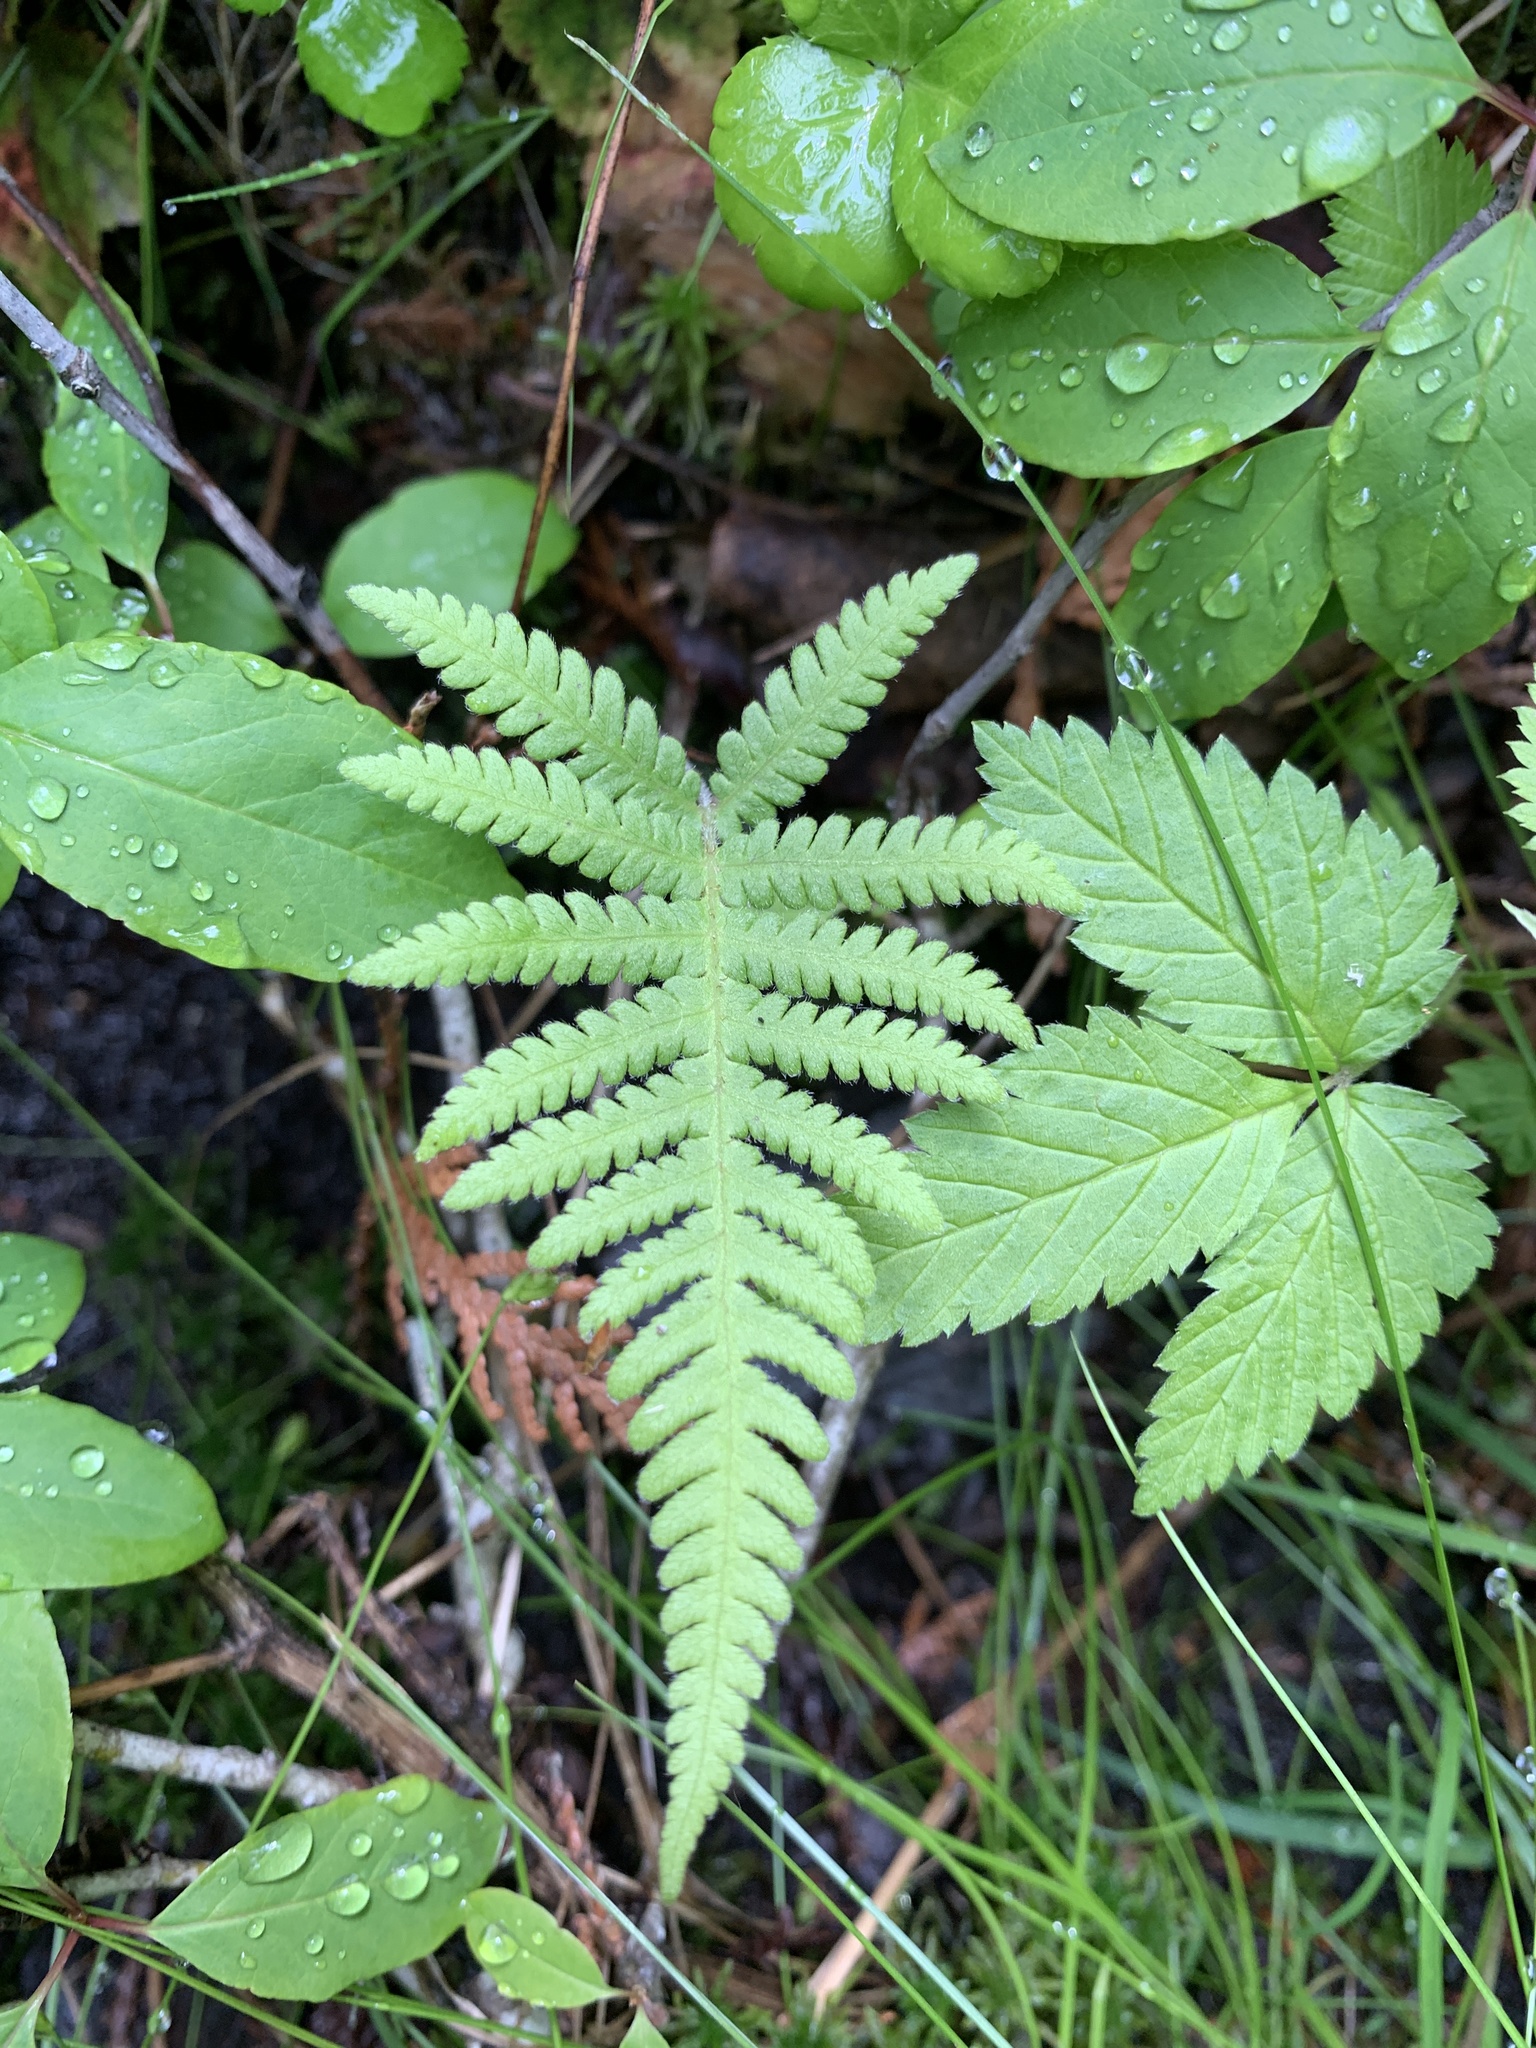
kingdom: Plantae
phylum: Tracheophyta
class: Polypodiopsida
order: Polypodiales
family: Thelypteridaceae
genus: Phegopteris
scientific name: Phegopteris connectilis
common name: Beech fern
